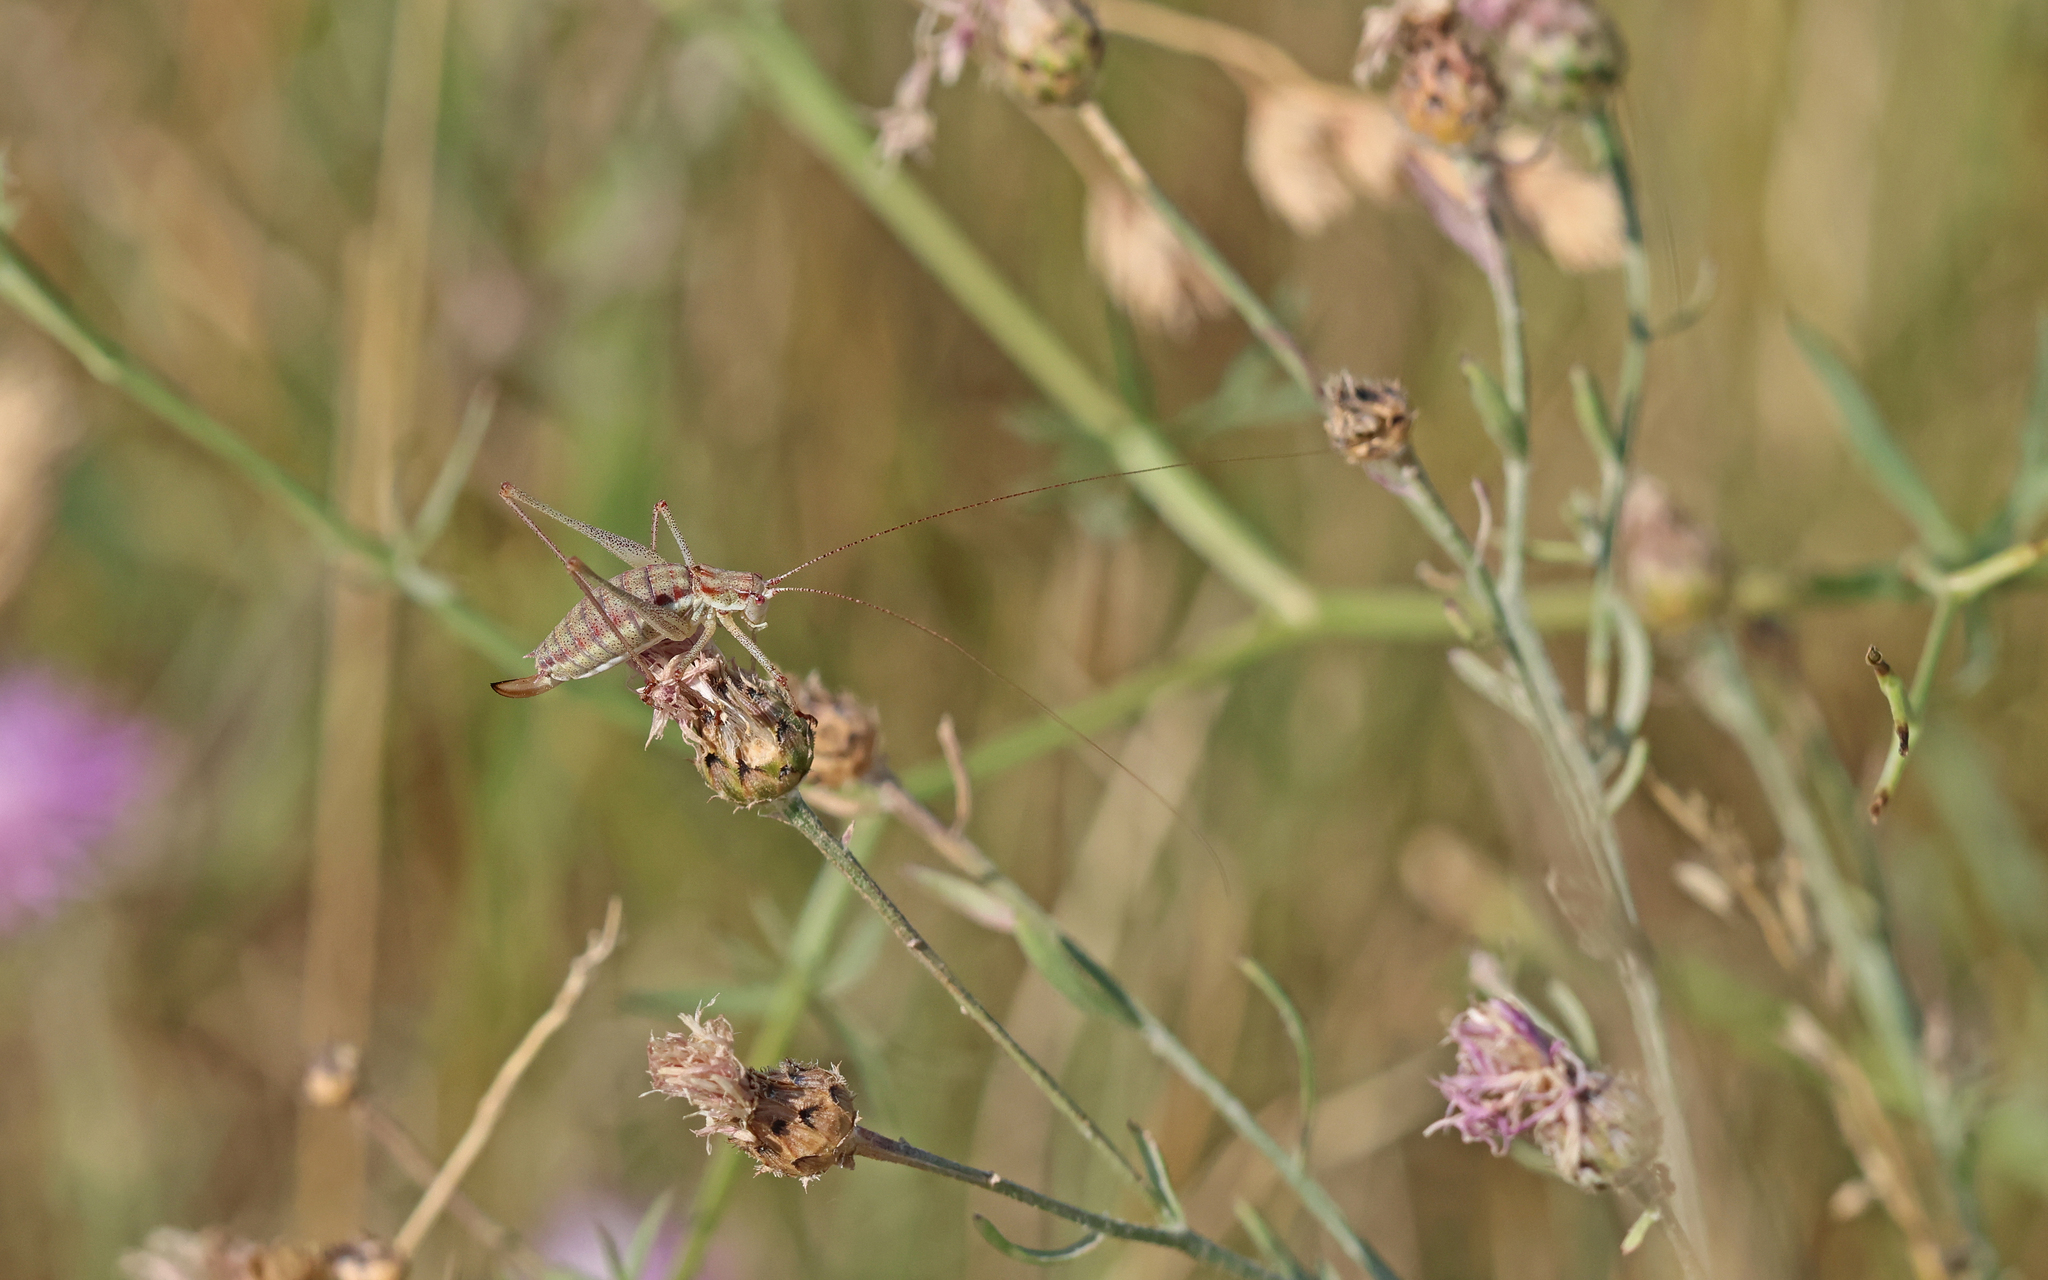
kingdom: Animalia
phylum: Arthropoda
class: Insecta
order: Orthoptera
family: Tettigoniidae
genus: Leptophyes
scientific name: Leptophyes albovittata
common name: Striped bush-cricket
